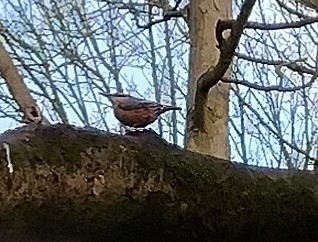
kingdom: Animalia
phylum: Chordata
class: Aves
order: Passeriformes
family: Sittidae
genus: Sitta
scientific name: Sitta europaea
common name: Eurasian nuthatch
